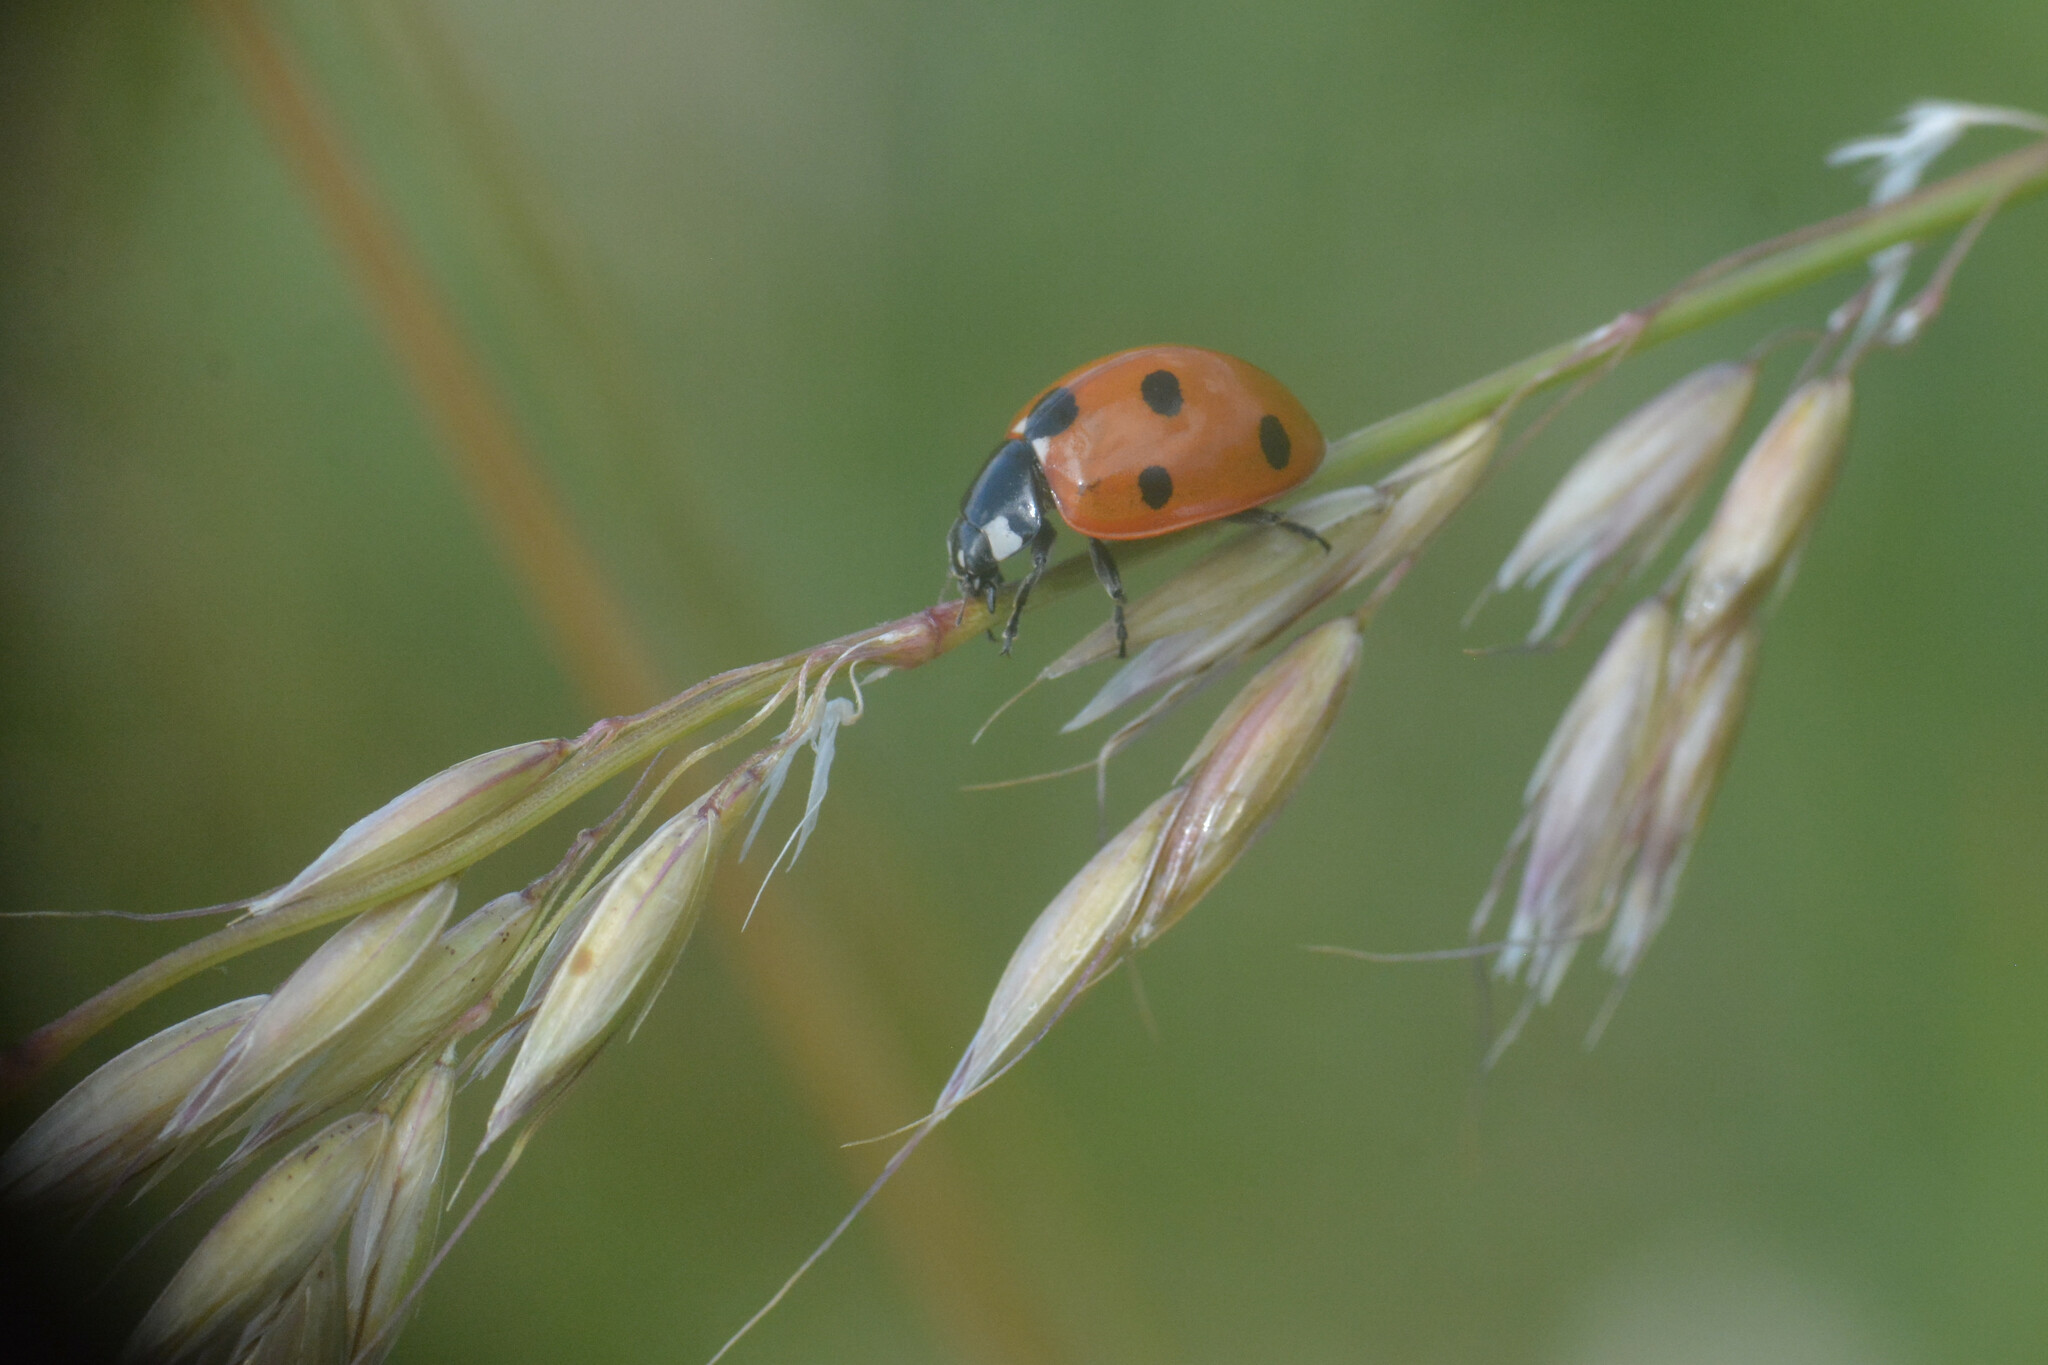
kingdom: Animalia
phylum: Arthropoda
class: Insecta
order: Coleoptera
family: Coccinellidae
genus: Coccinella
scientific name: Coccinella septempunctata
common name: Sevenspotted lady beetle
